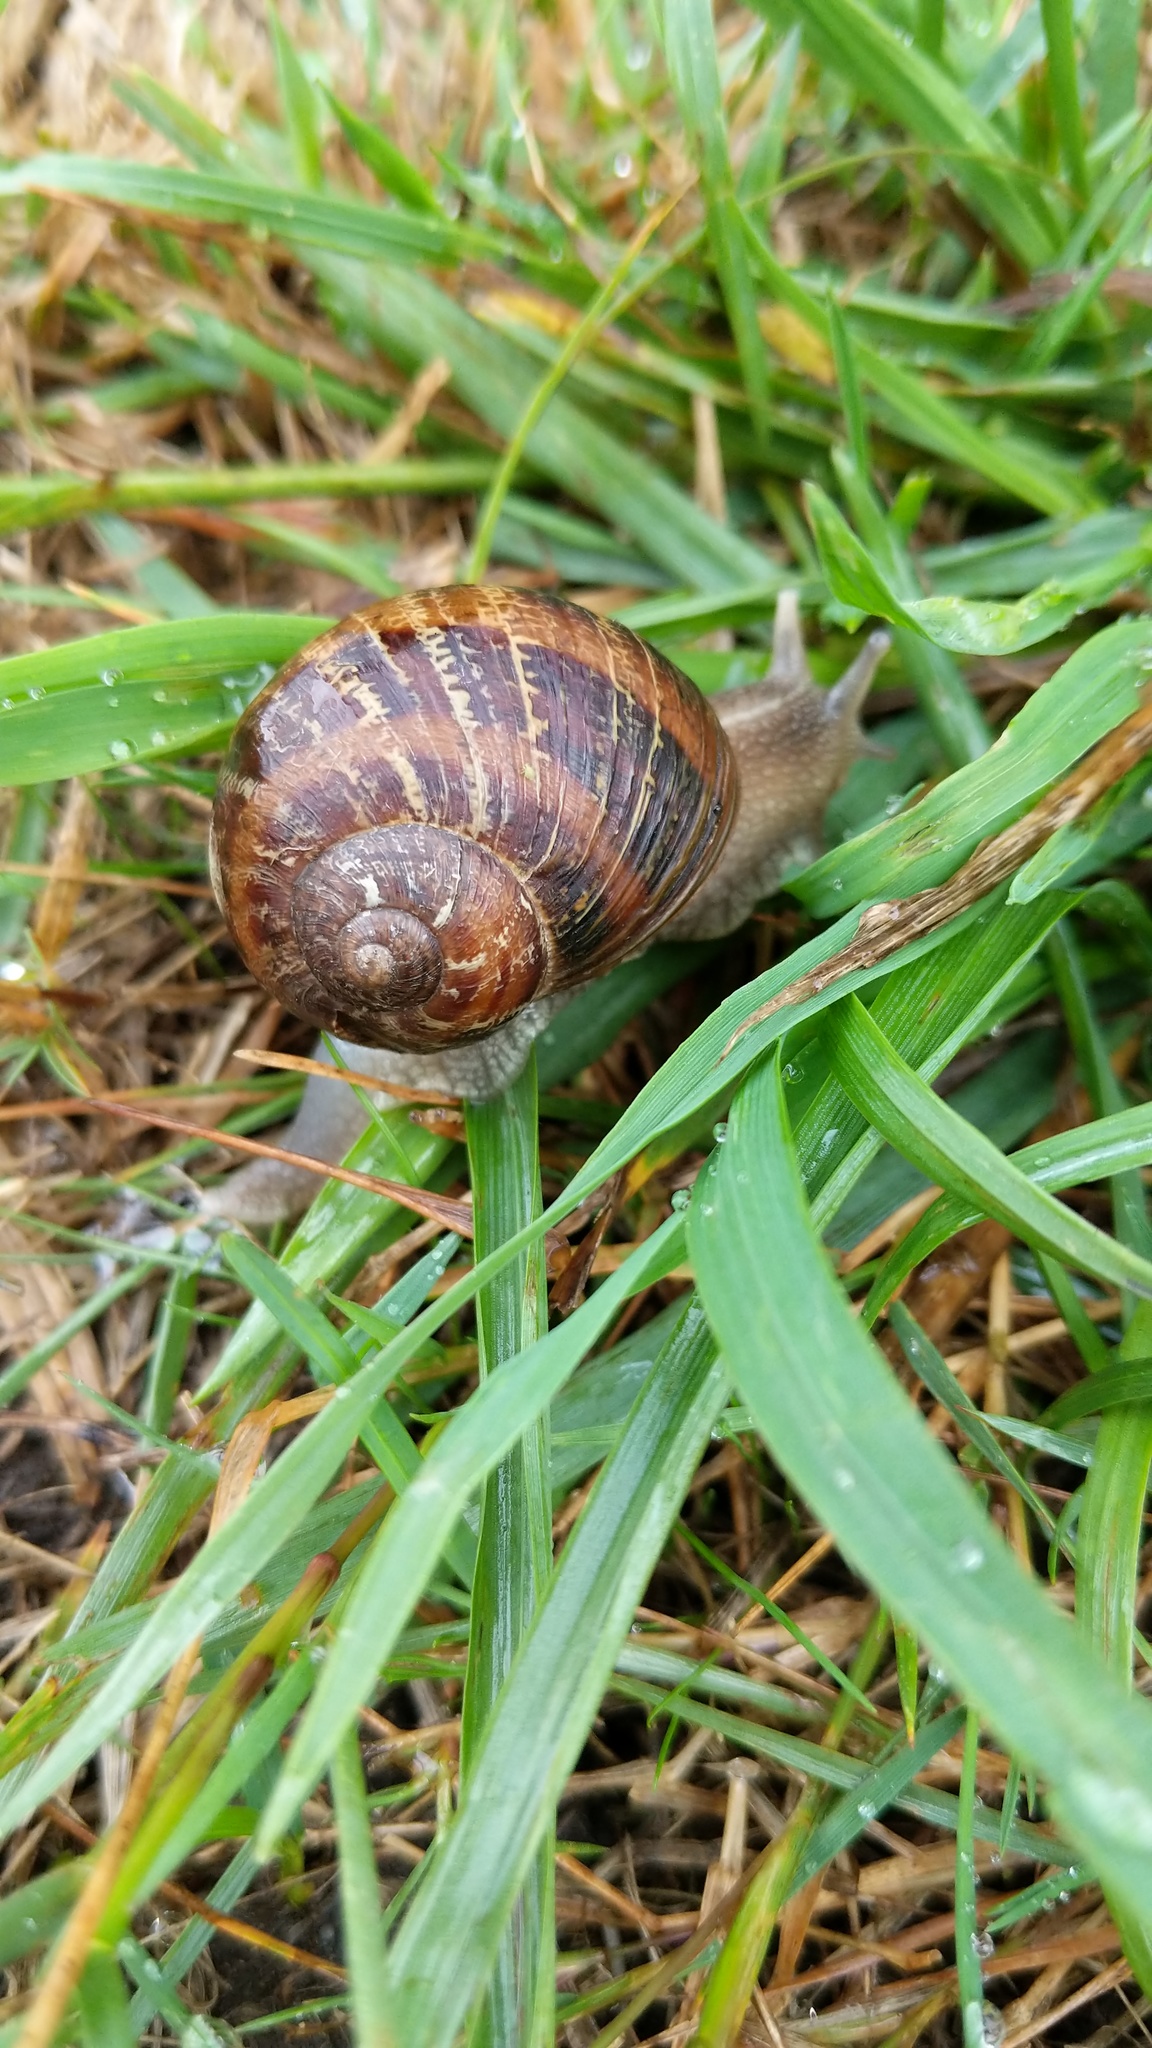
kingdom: Animalia
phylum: Mollusca
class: Gastropoda
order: Stylommatophora
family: Helicidae
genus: Cornu
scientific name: Cornu aspersum
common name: Brown garden snail
